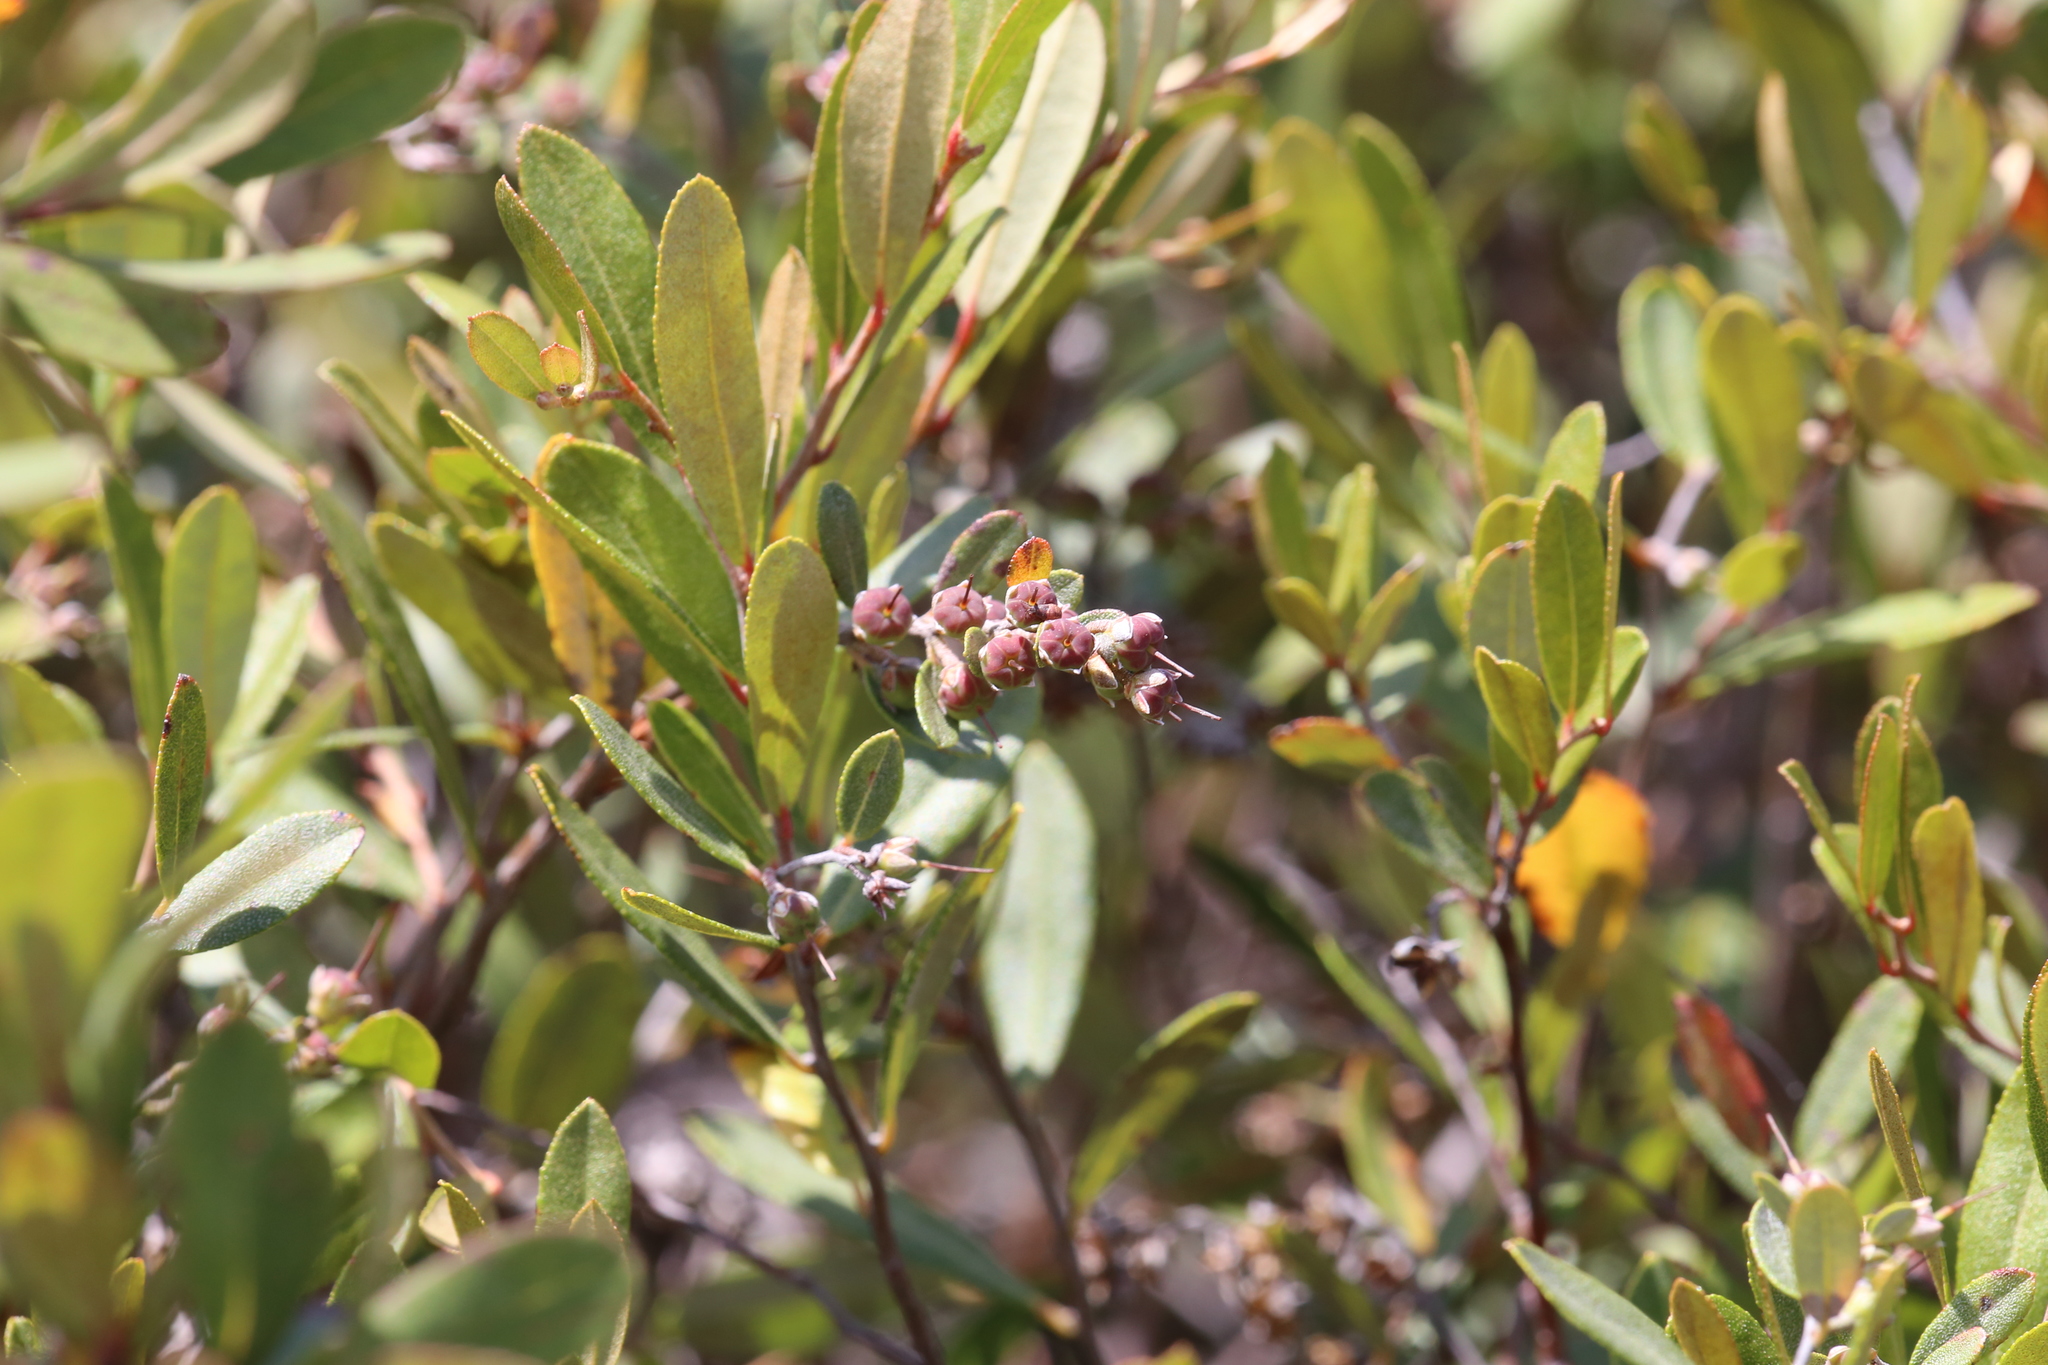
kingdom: Plantae
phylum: Tracheophyta
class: Magnoliopsida
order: Ericales
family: Ericaceae
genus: Chamaedaphne
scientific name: Chamaedaphne calyculata
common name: Leatherleaf
